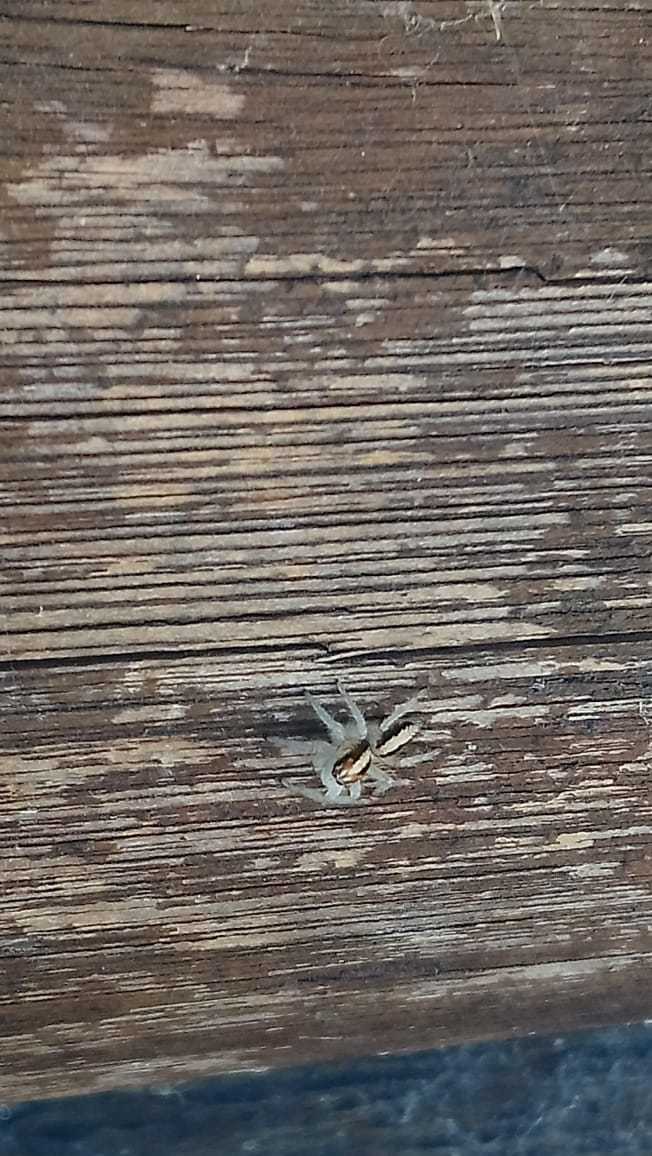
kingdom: Animalia
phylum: Arthropoda
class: Arachnida
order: Araneae
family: Salticidae
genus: Megafreya
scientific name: Megafreya sutrix
